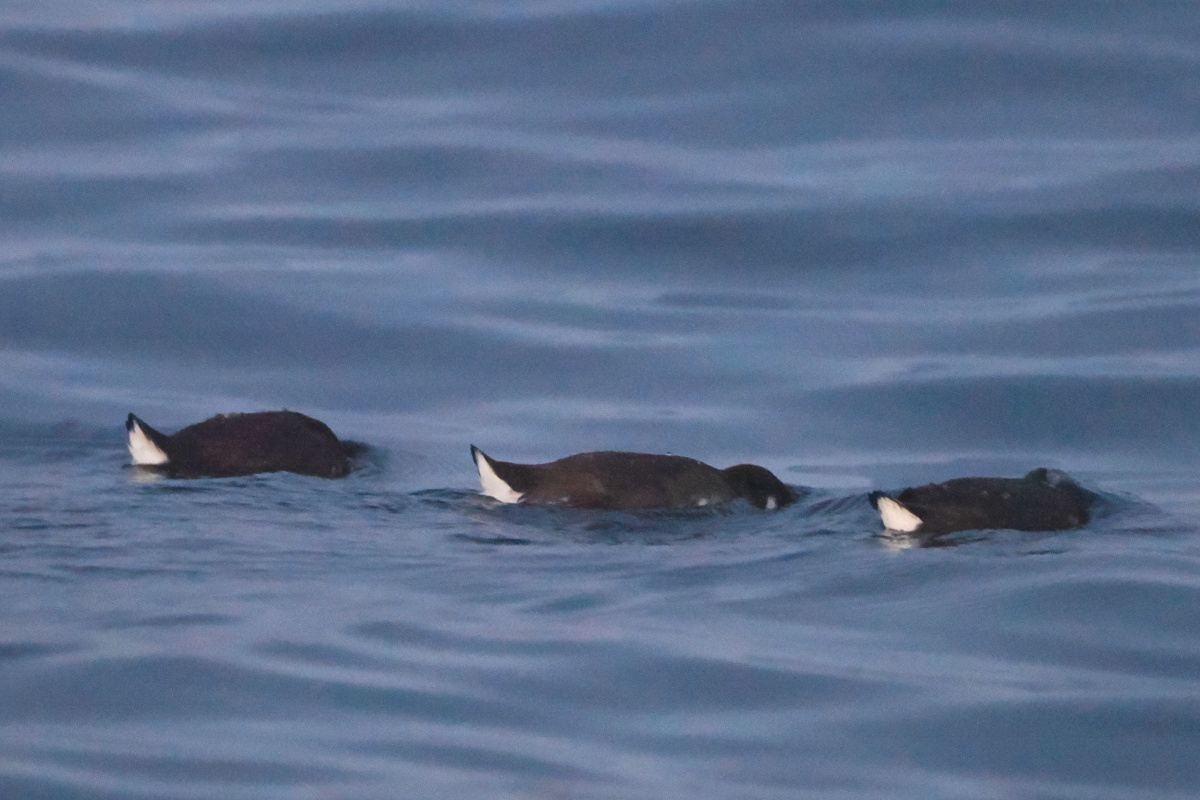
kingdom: Animalia
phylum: Chordata
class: Aves
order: Charadriiformes
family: Alcidae
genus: Synthliboramphus
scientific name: Synthliboramphus craveri
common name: Craveri's murrelet
